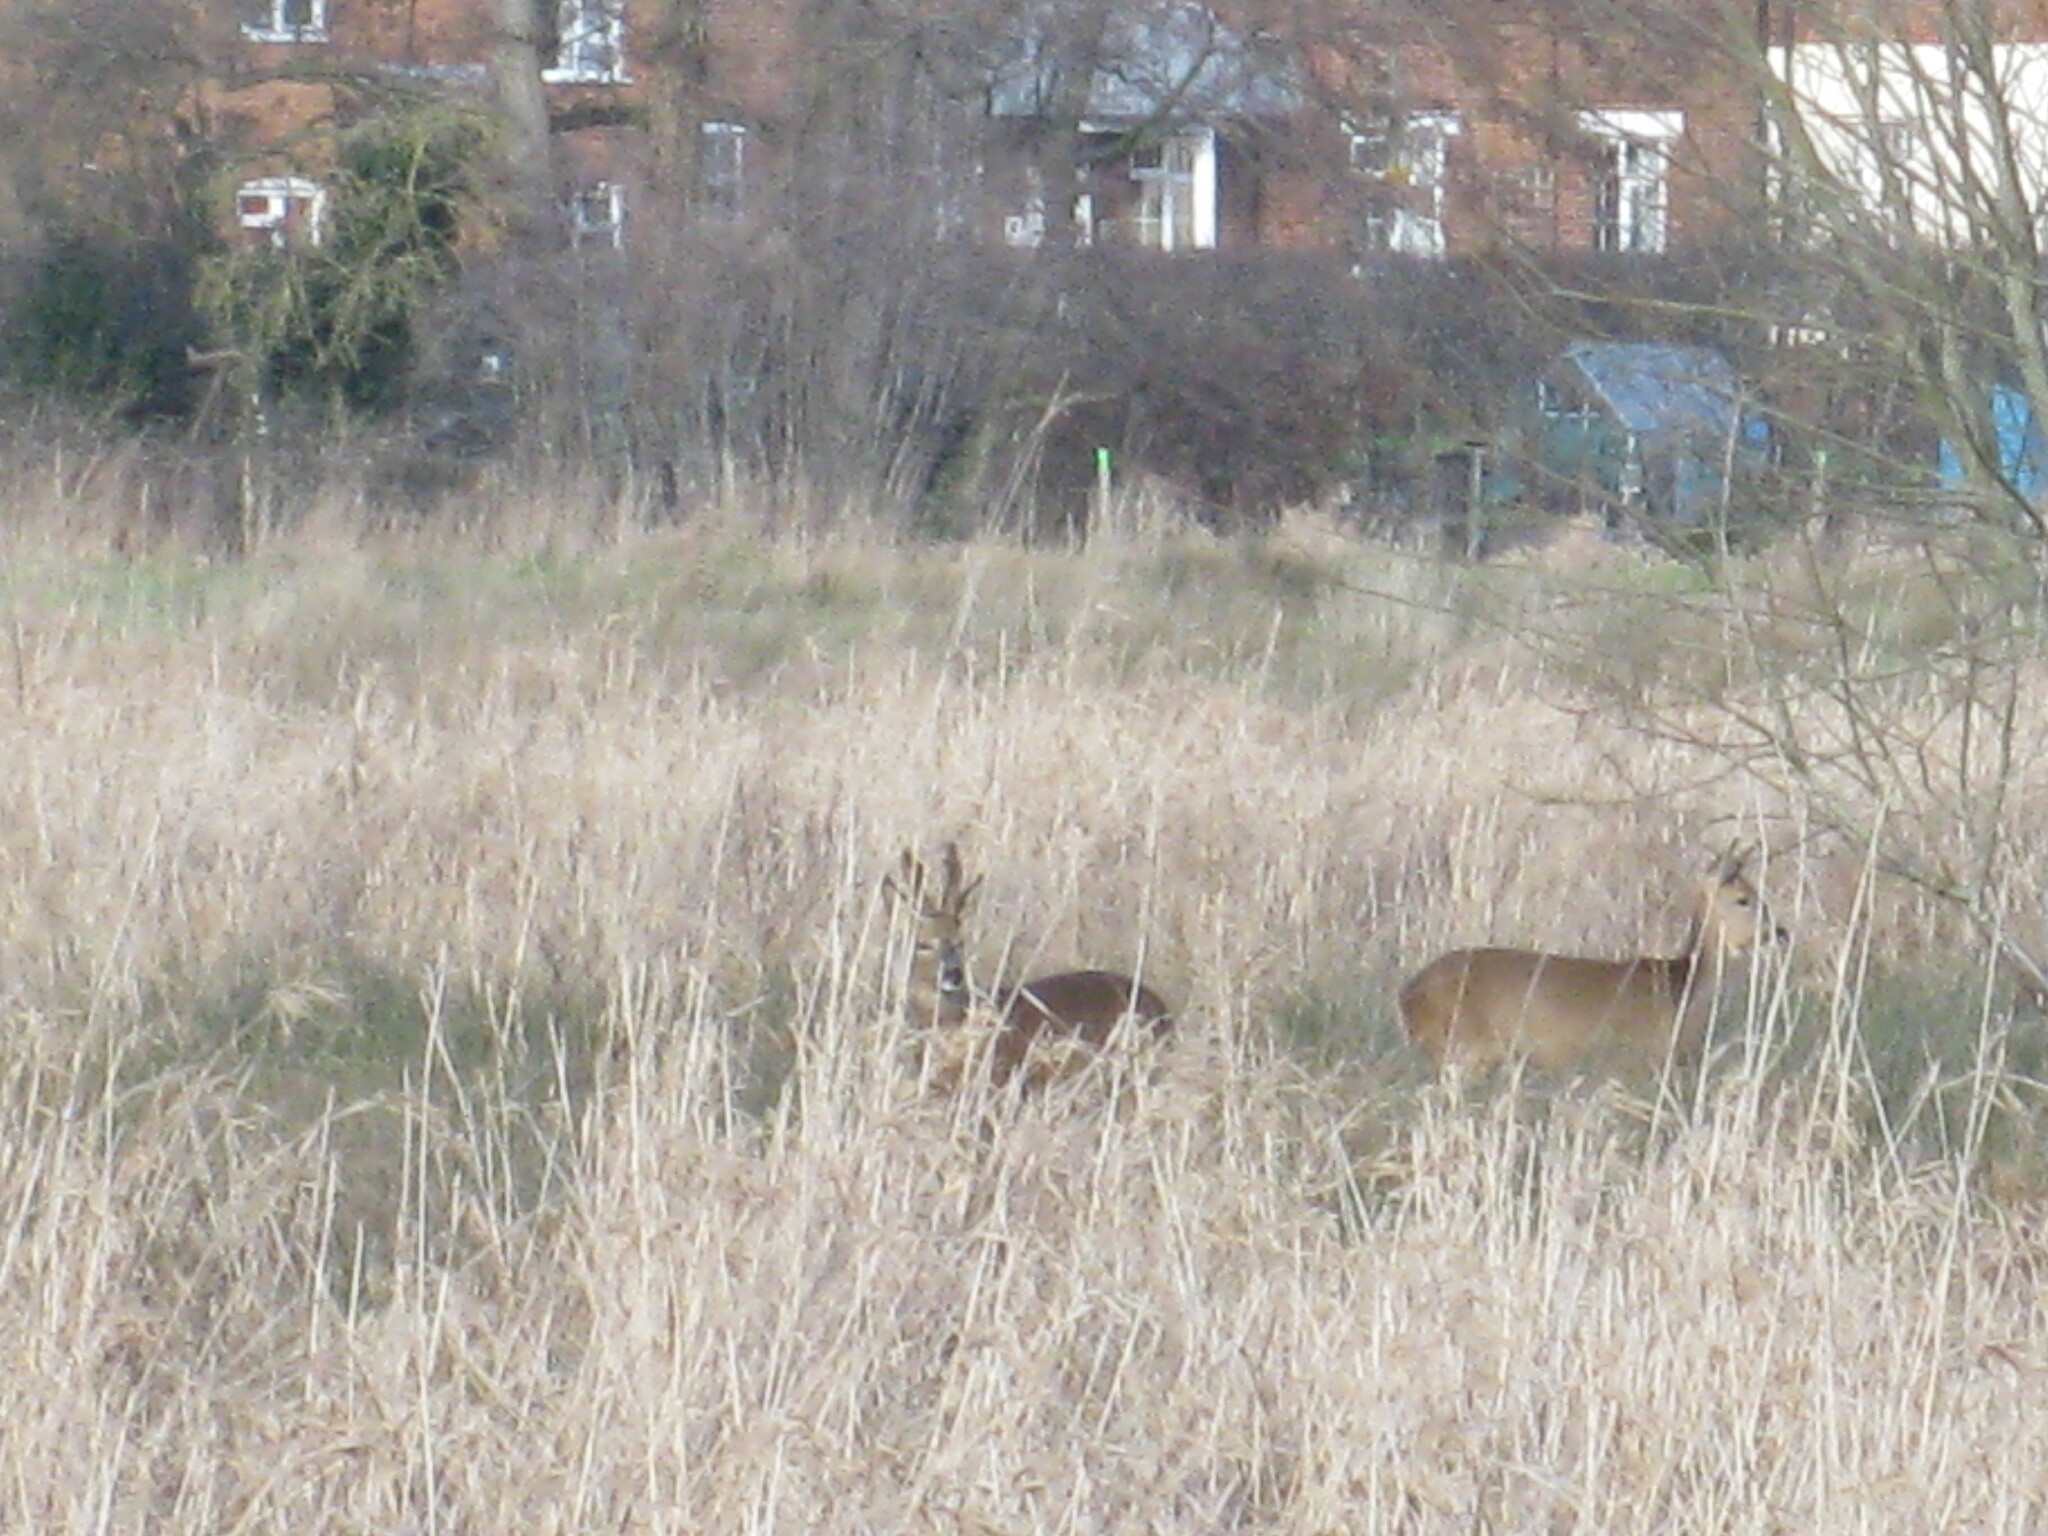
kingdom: Animalia
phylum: Chordata
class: Mammalia
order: Artiodactyla
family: Cervidae
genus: Capreolus
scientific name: Capreolus capreolus
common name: Western roe deer
